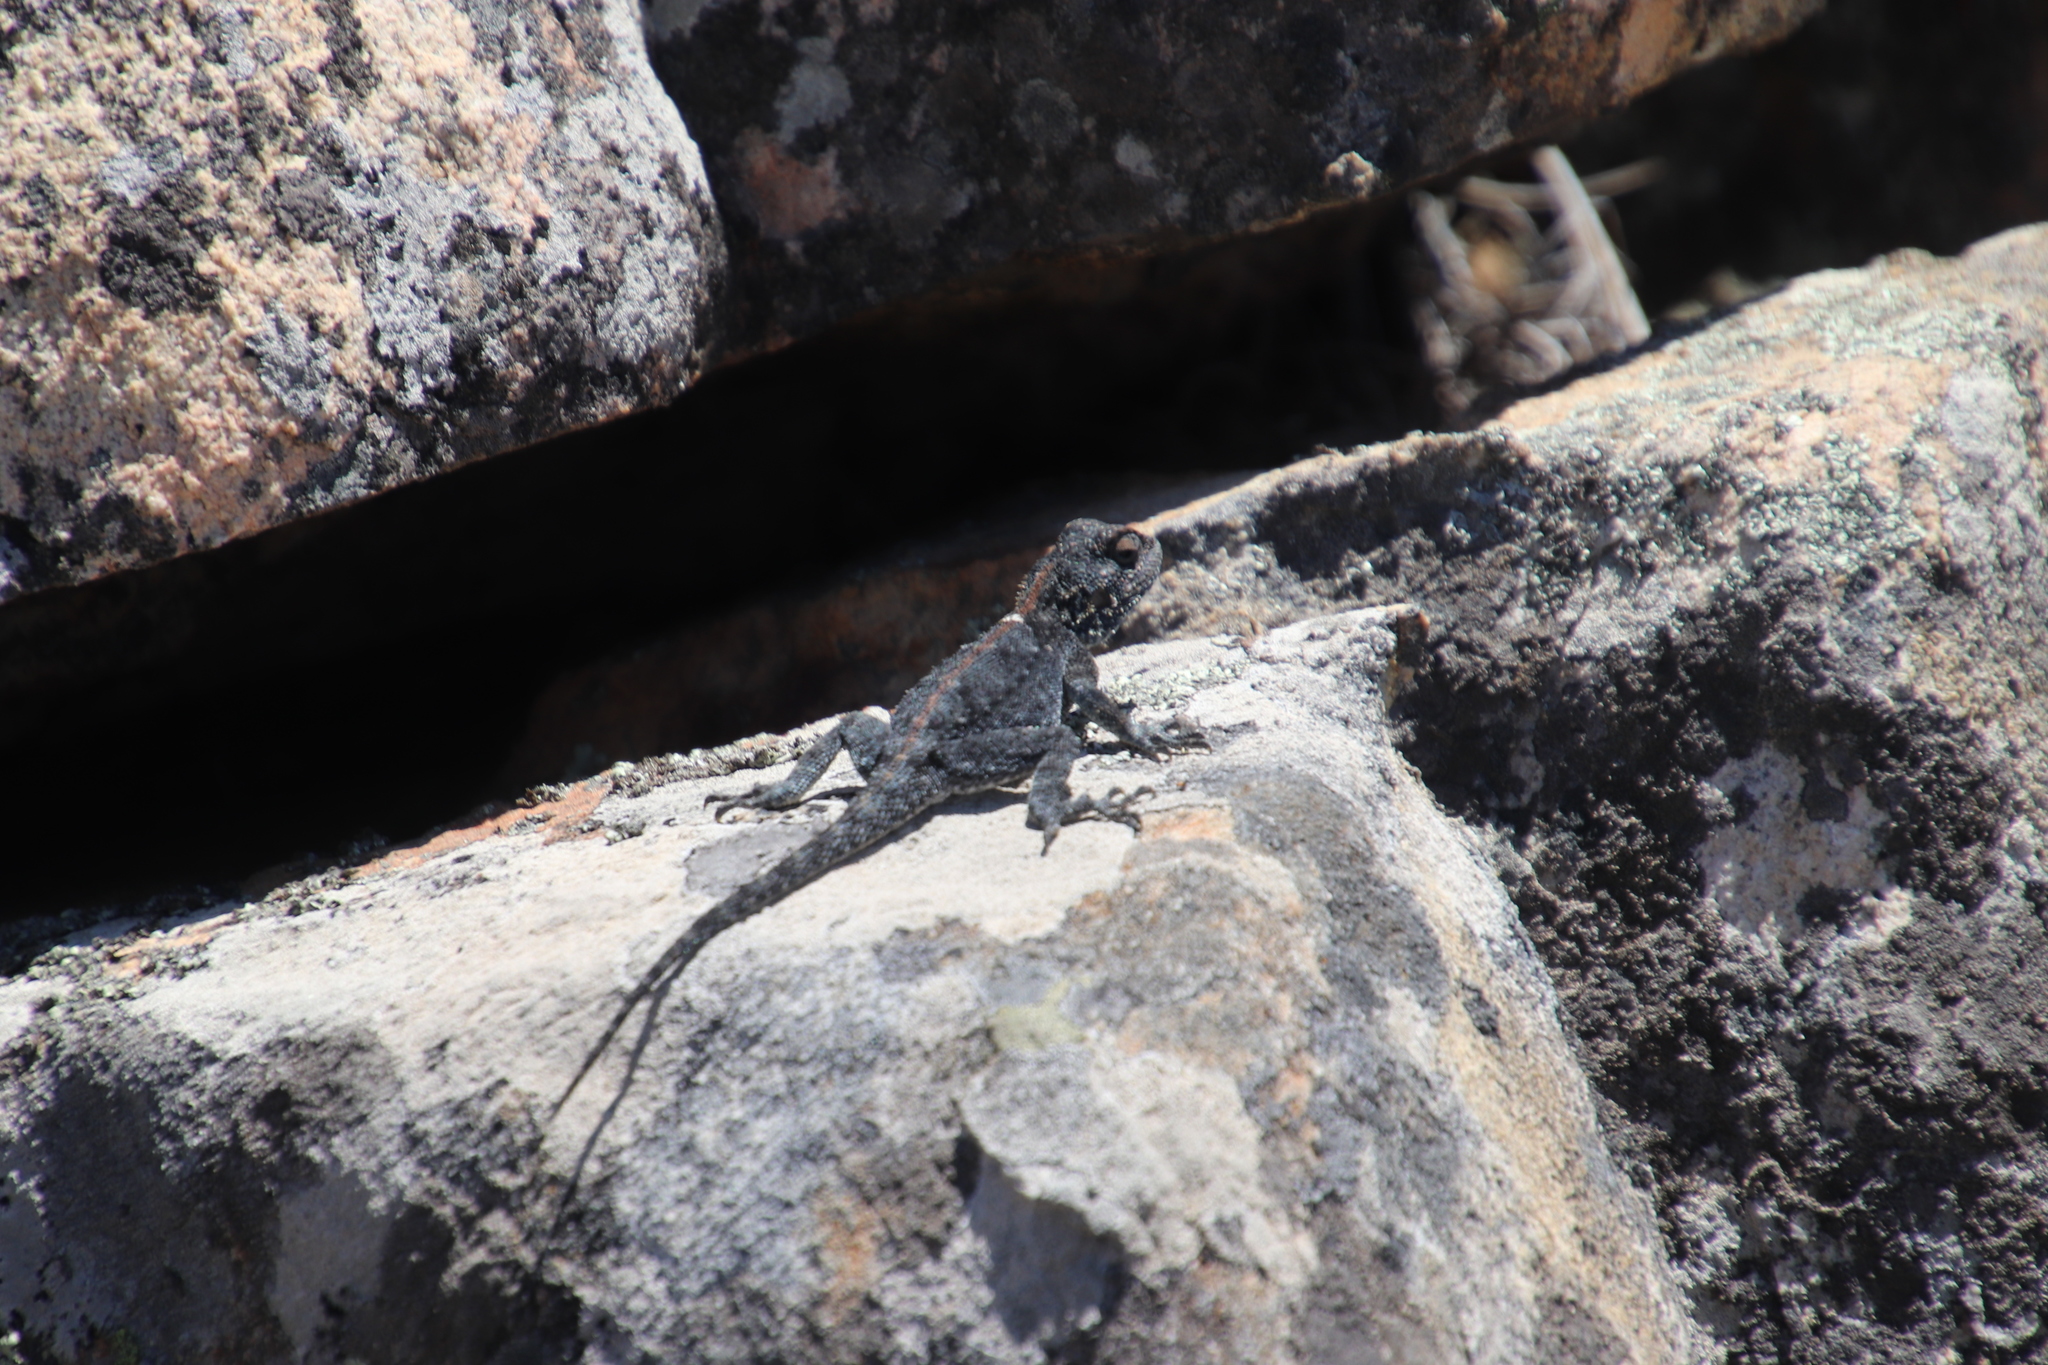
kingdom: Animalia
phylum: Chordata
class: Squamata
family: Agamidae
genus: Agama
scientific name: Agama atra
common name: Southern african rock agama
